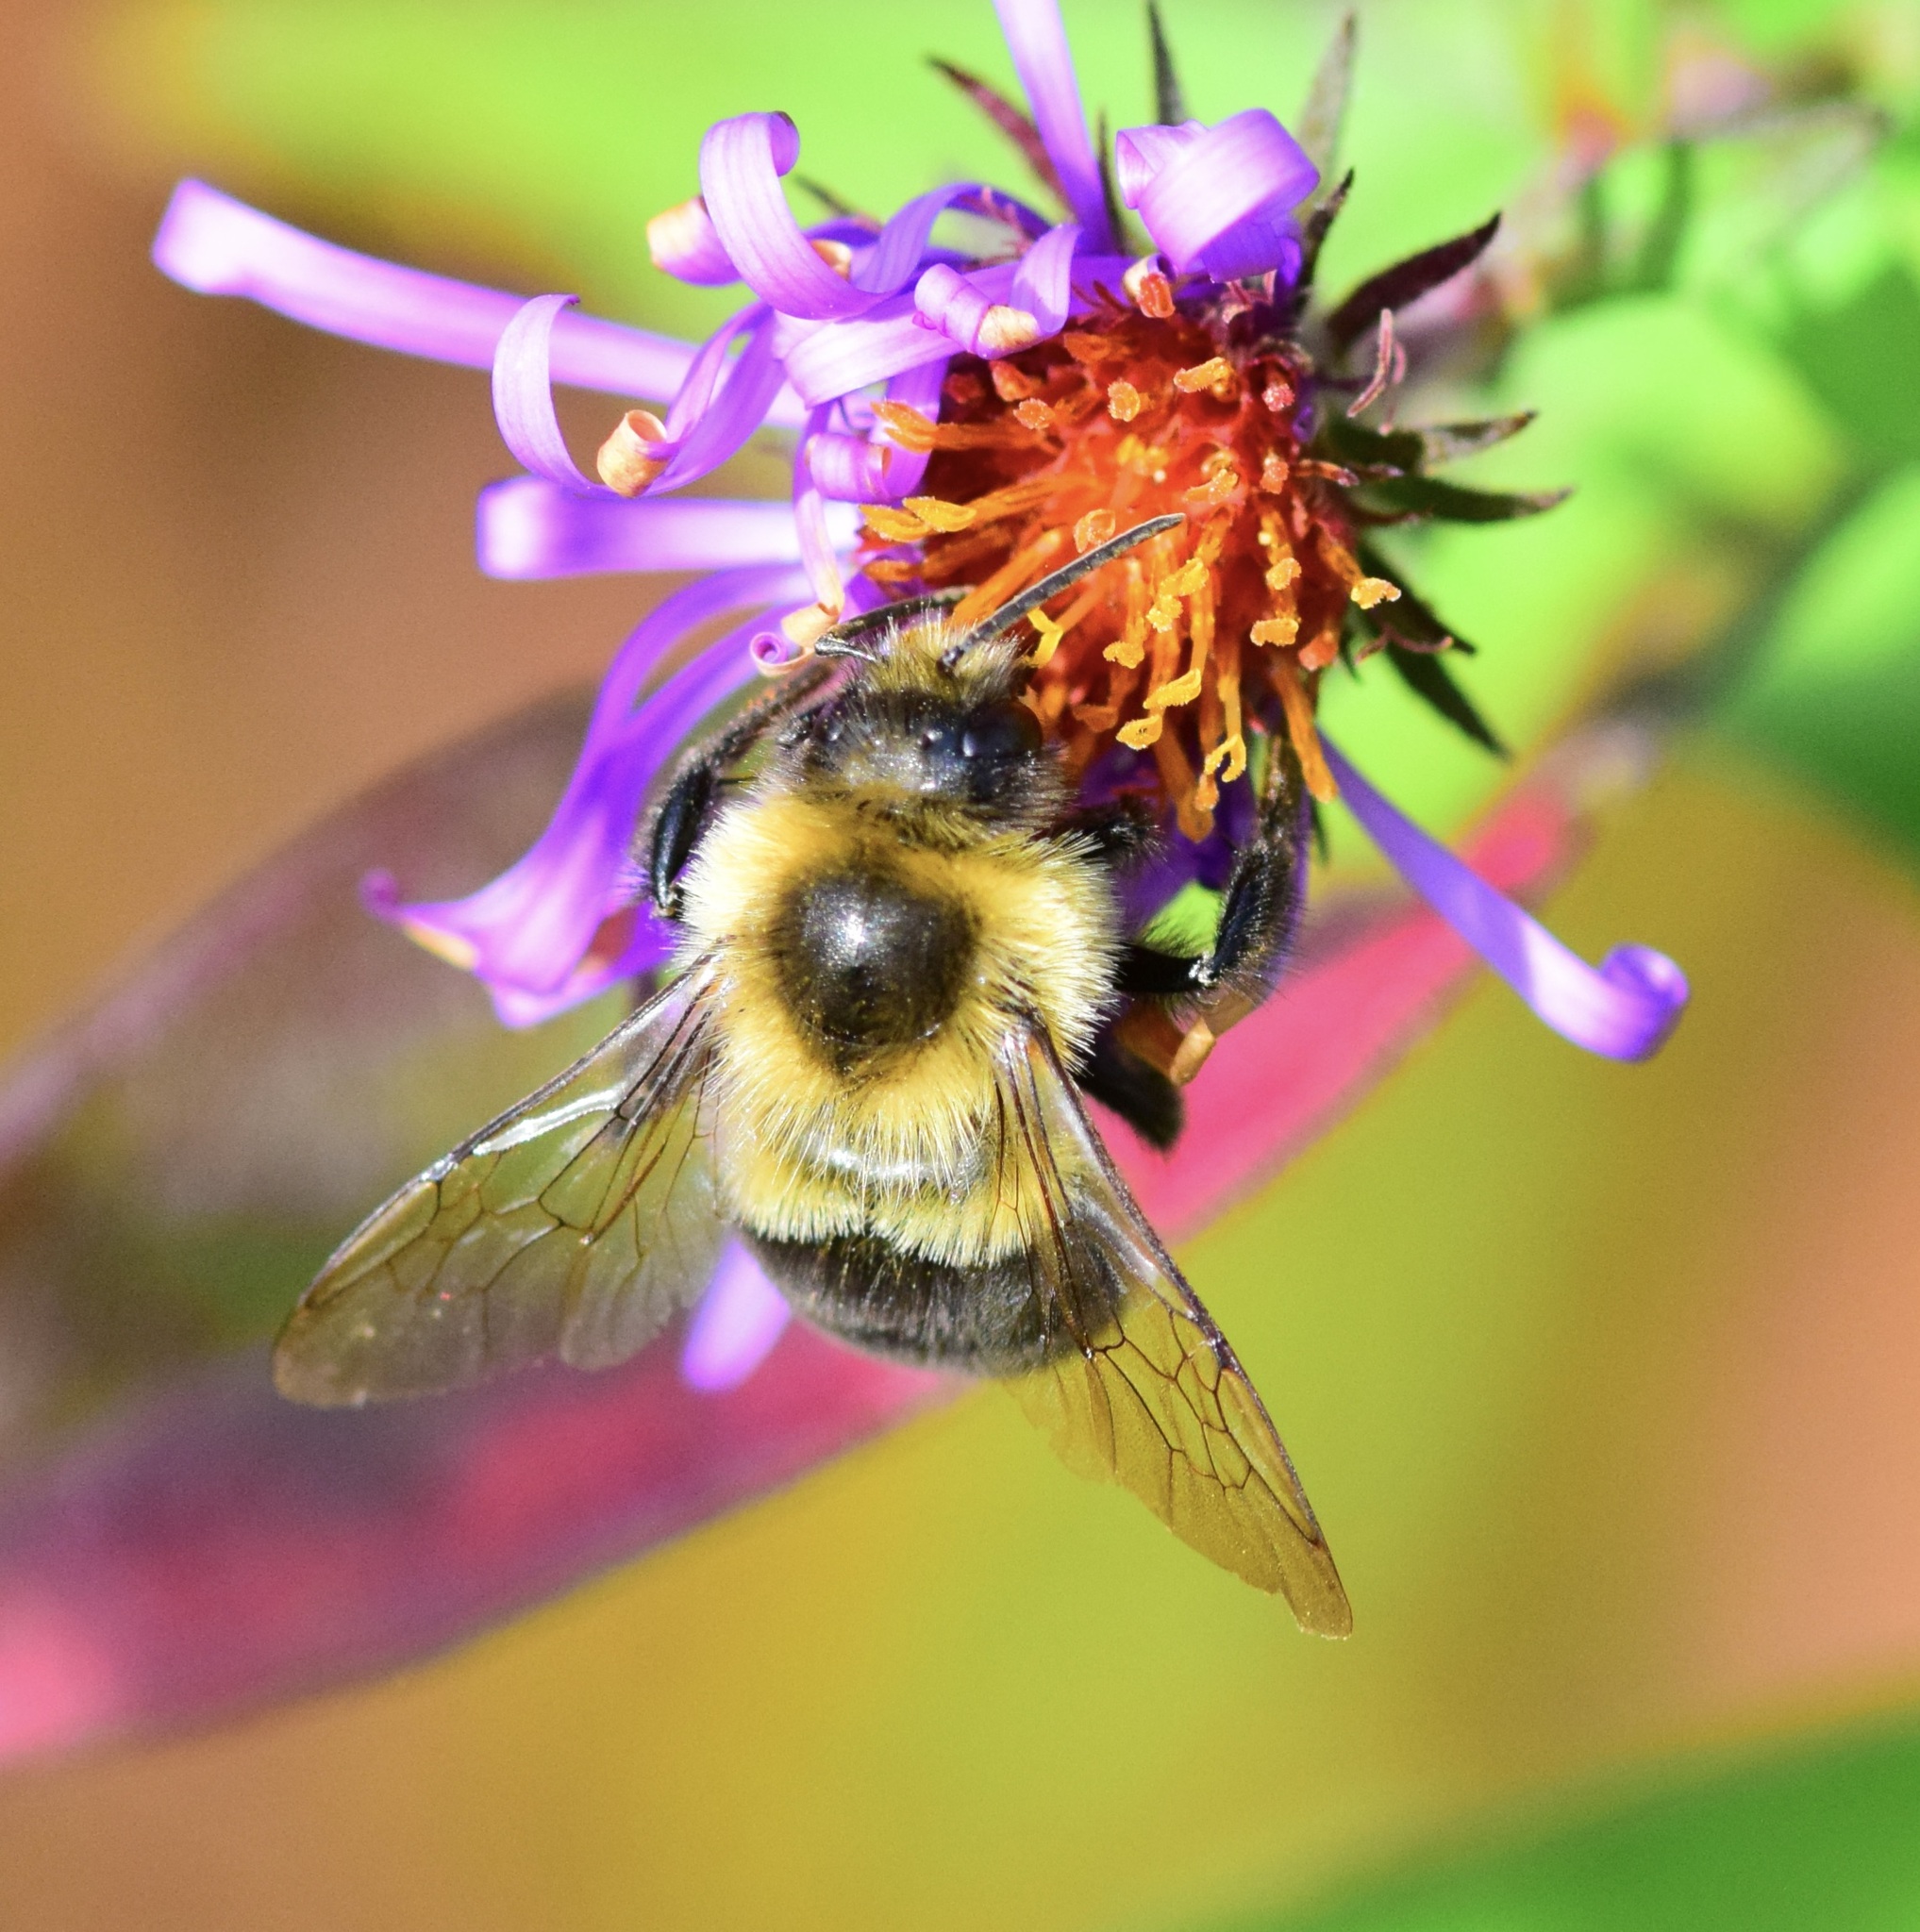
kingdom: Animalia
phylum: Arthropoda
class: Insecta
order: Hymenoptera
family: Apidae
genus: Bombus
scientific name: Bombus impatiens
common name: Common eastern bumble bee
